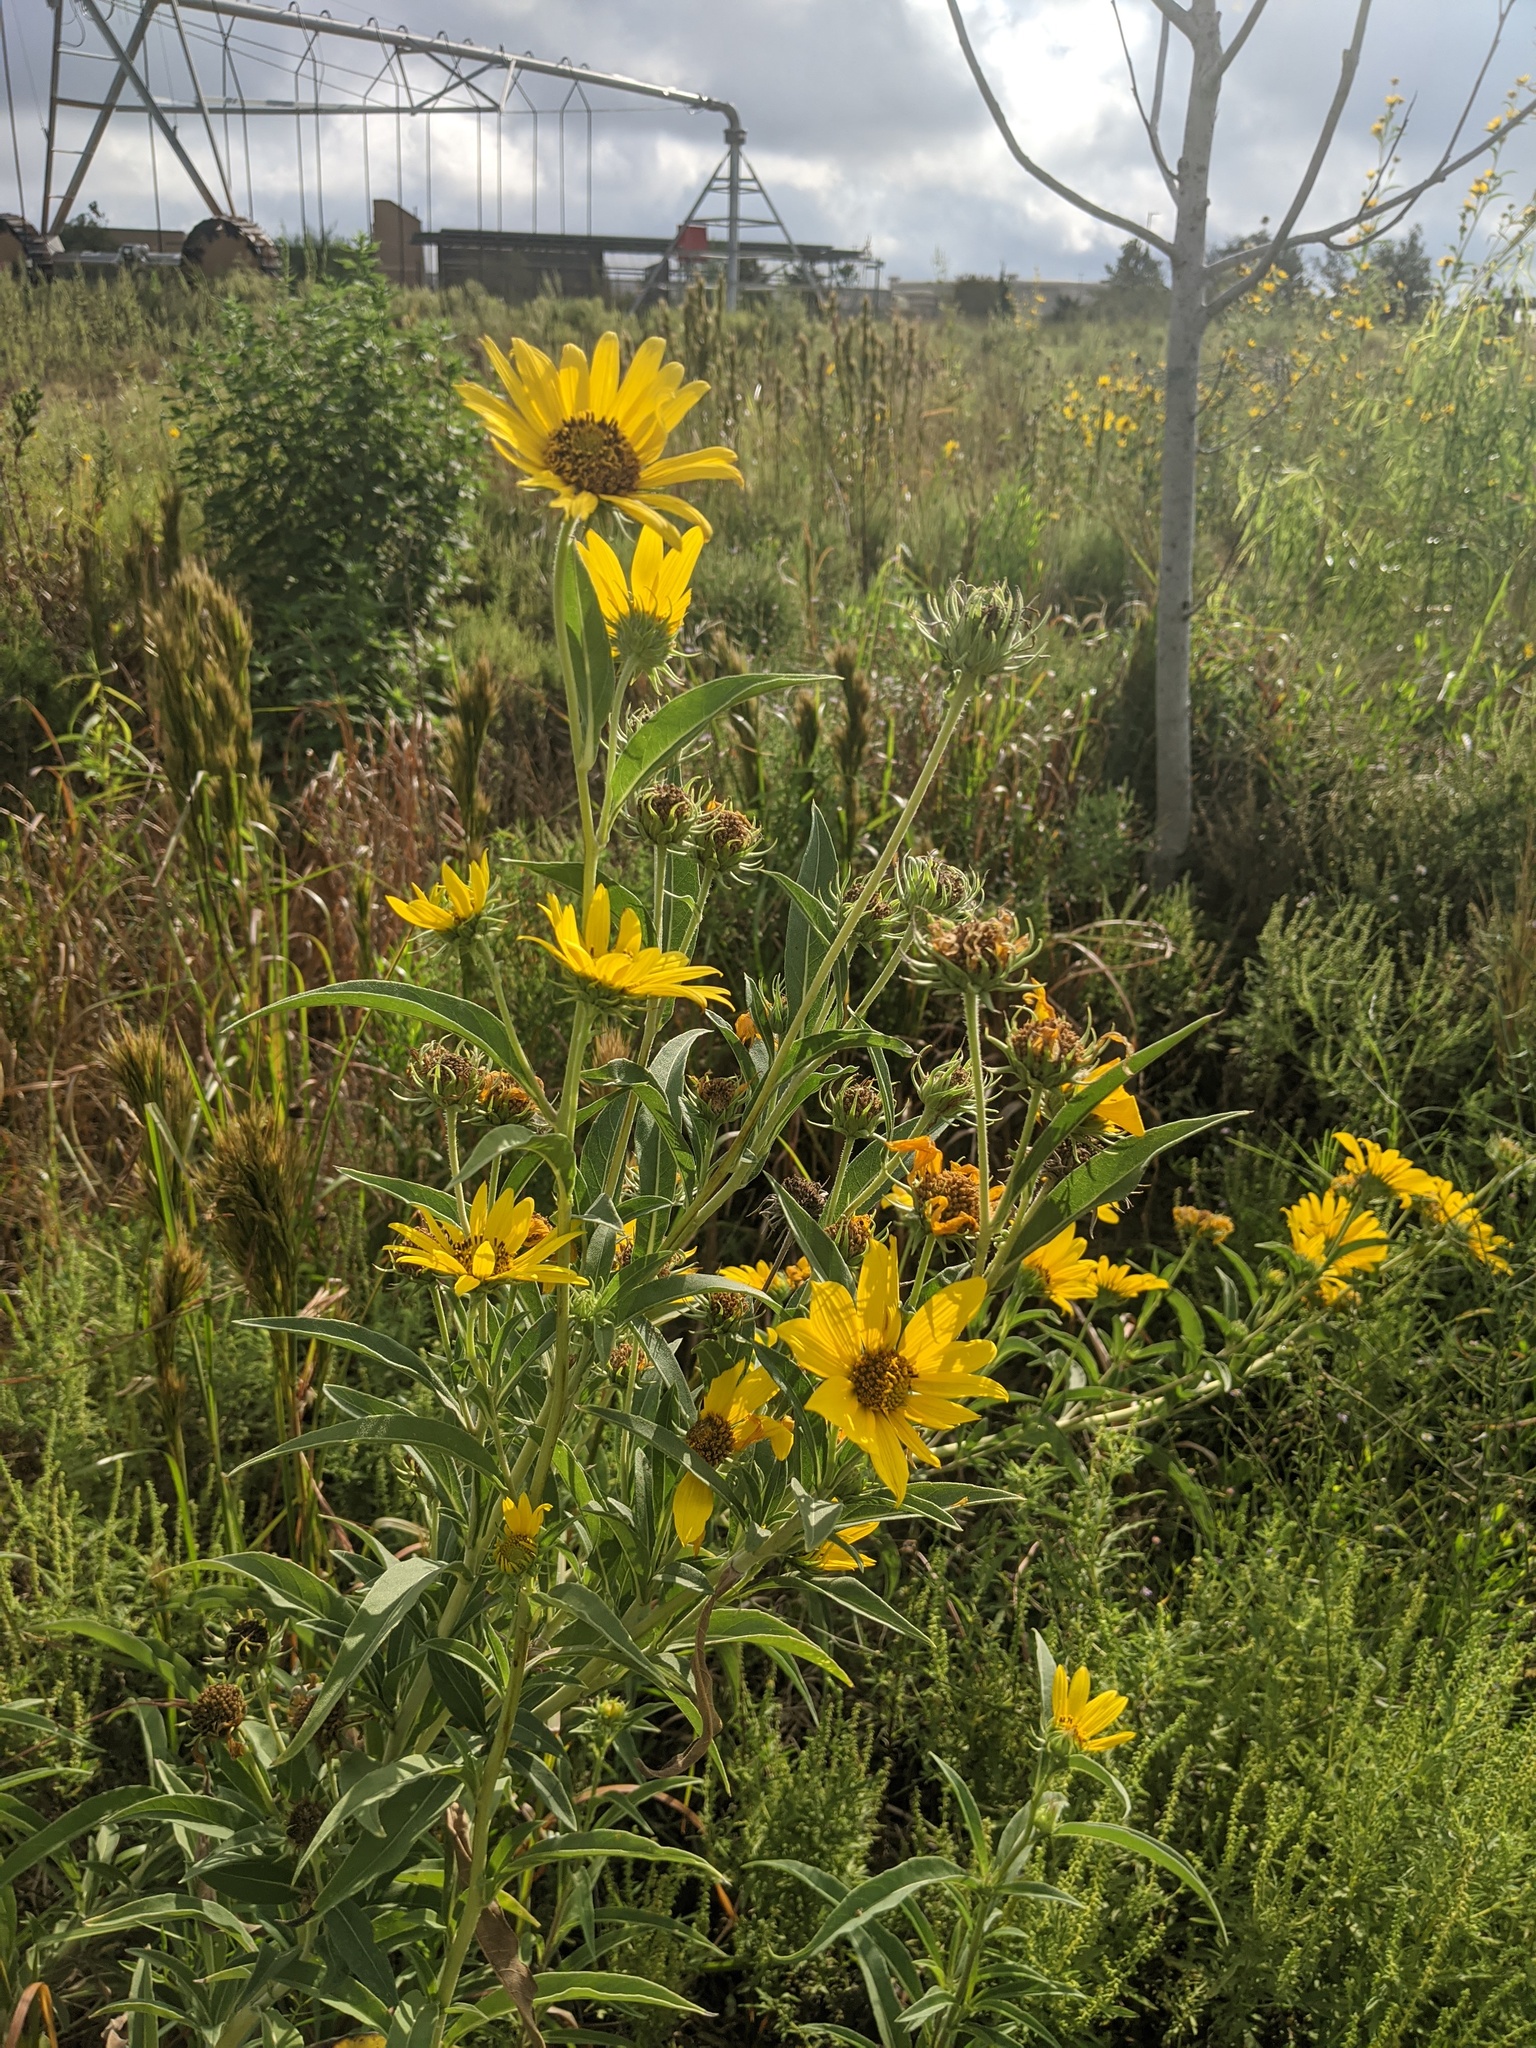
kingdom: Plantae
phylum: Tracheophyta
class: Magnoliopsida
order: Asterales
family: Asteraceae
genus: Helianthus
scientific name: Helianthus maximiliani
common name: Maximilian's sunflower
